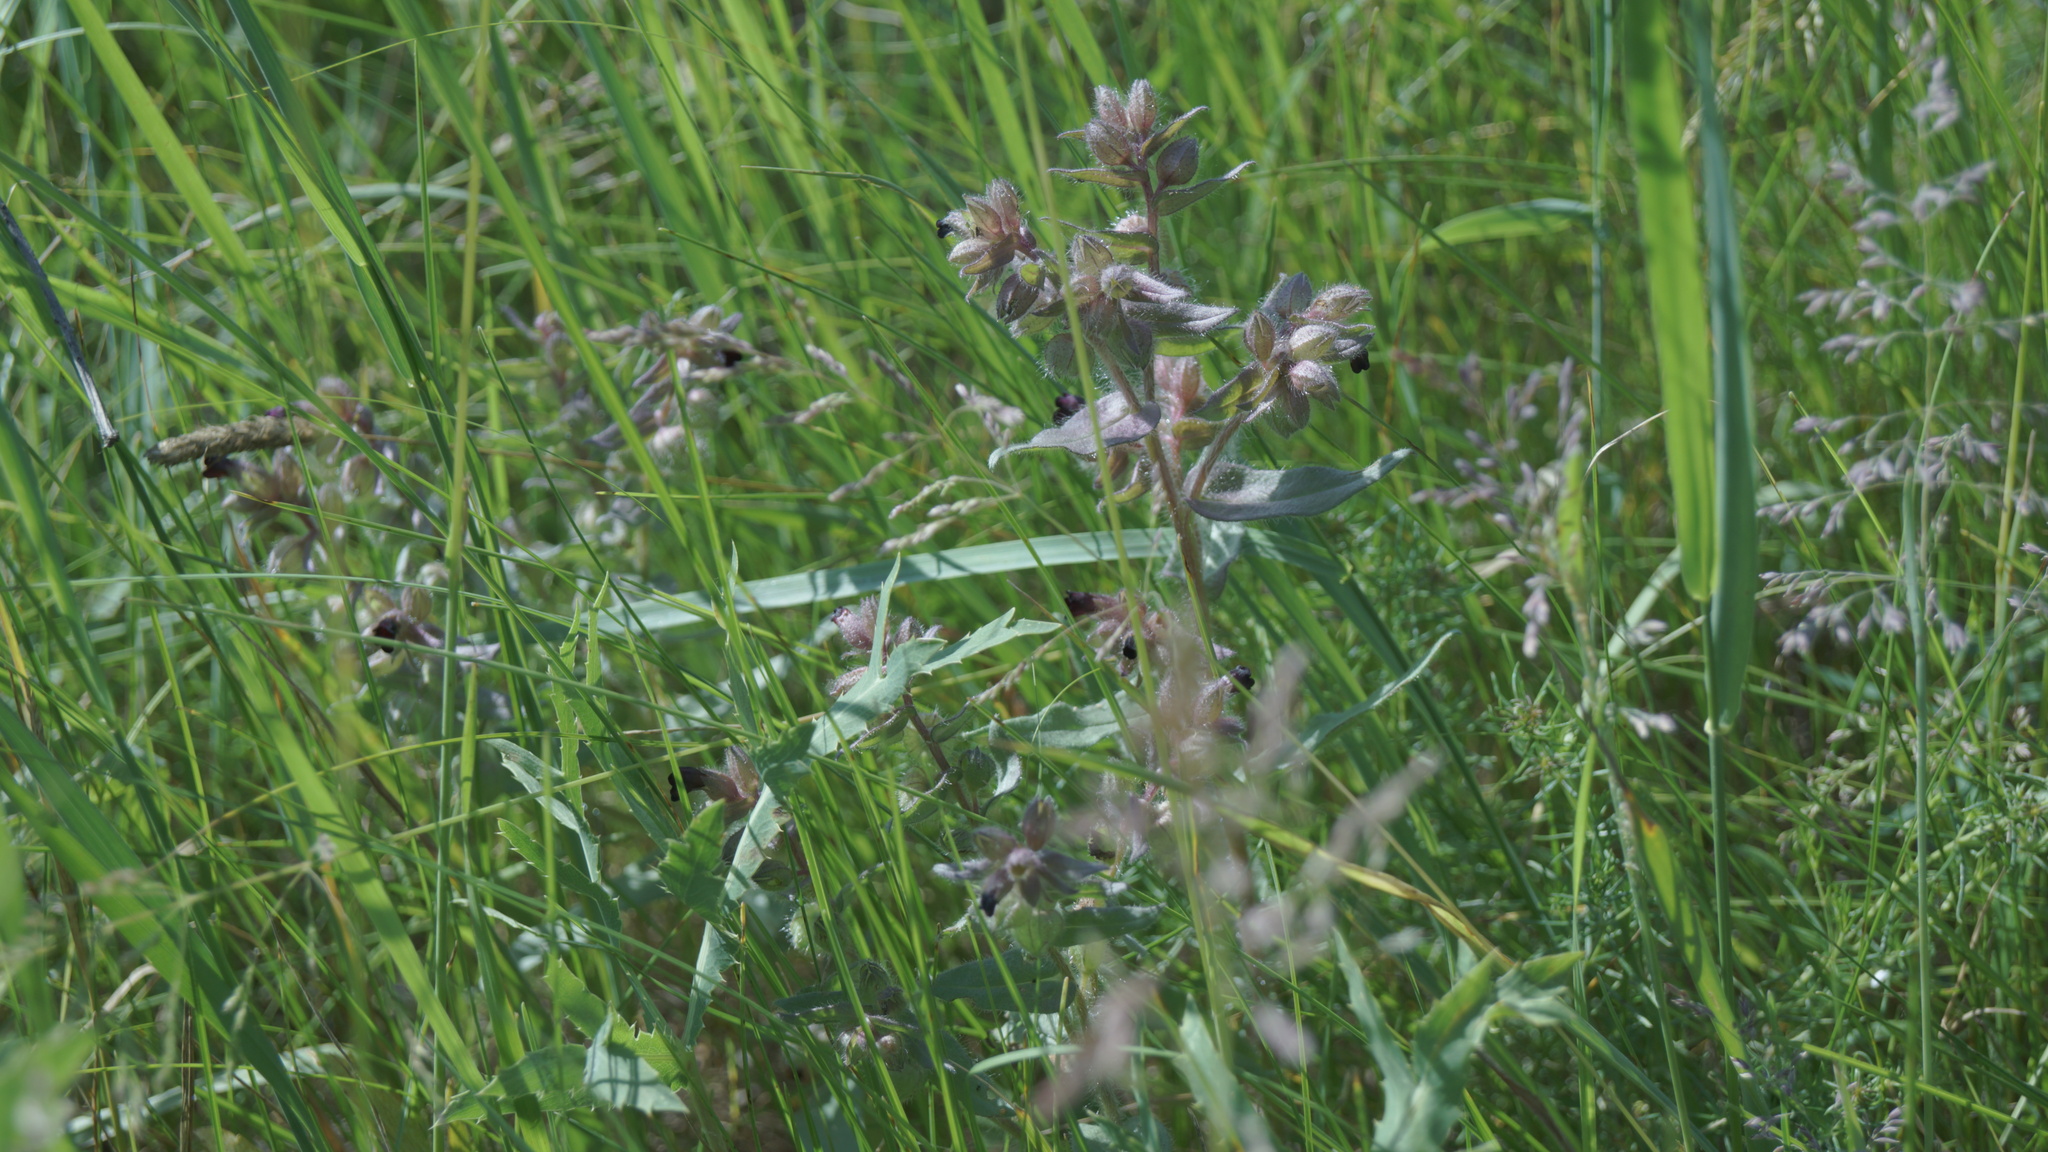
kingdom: Plantae
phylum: Tracheophyta
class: Magnoliopsida
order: Boraginales
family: Boraginaceae
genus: Nonea
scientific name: Nonea pulla
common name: Brown nonea
